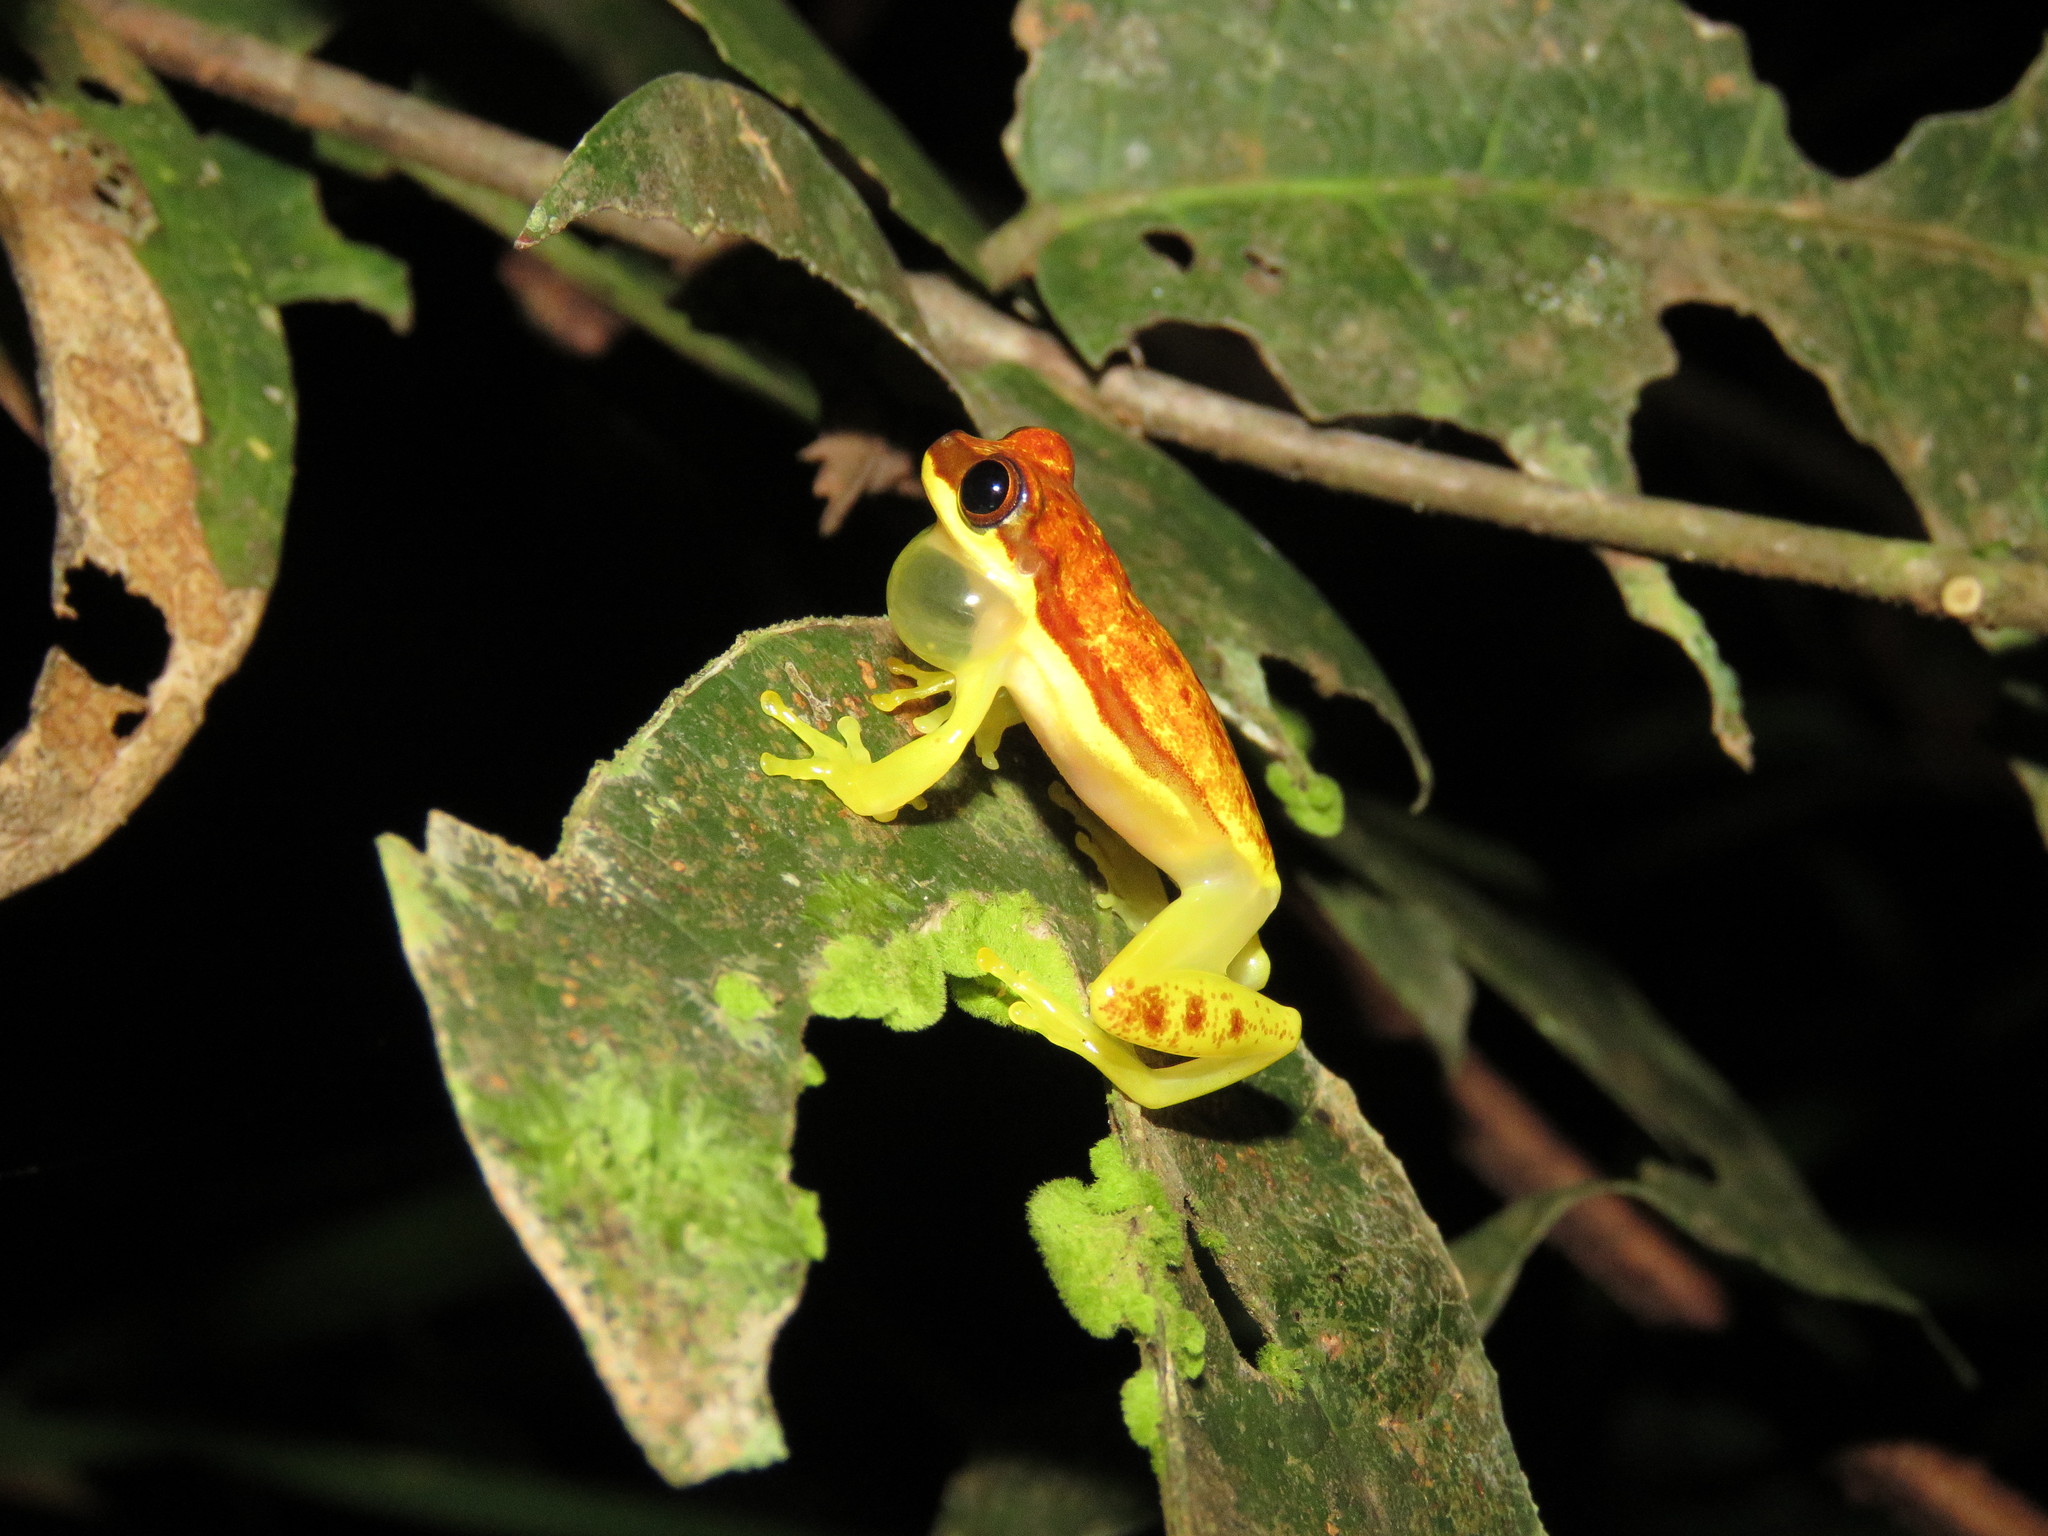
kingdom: Animalia
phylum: Chordata
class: Amphibia
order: Anura
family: Hylidae
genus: Dendropsophus
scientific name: Dendropsophus rhodopeplus
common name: Red-skirted treefrog
